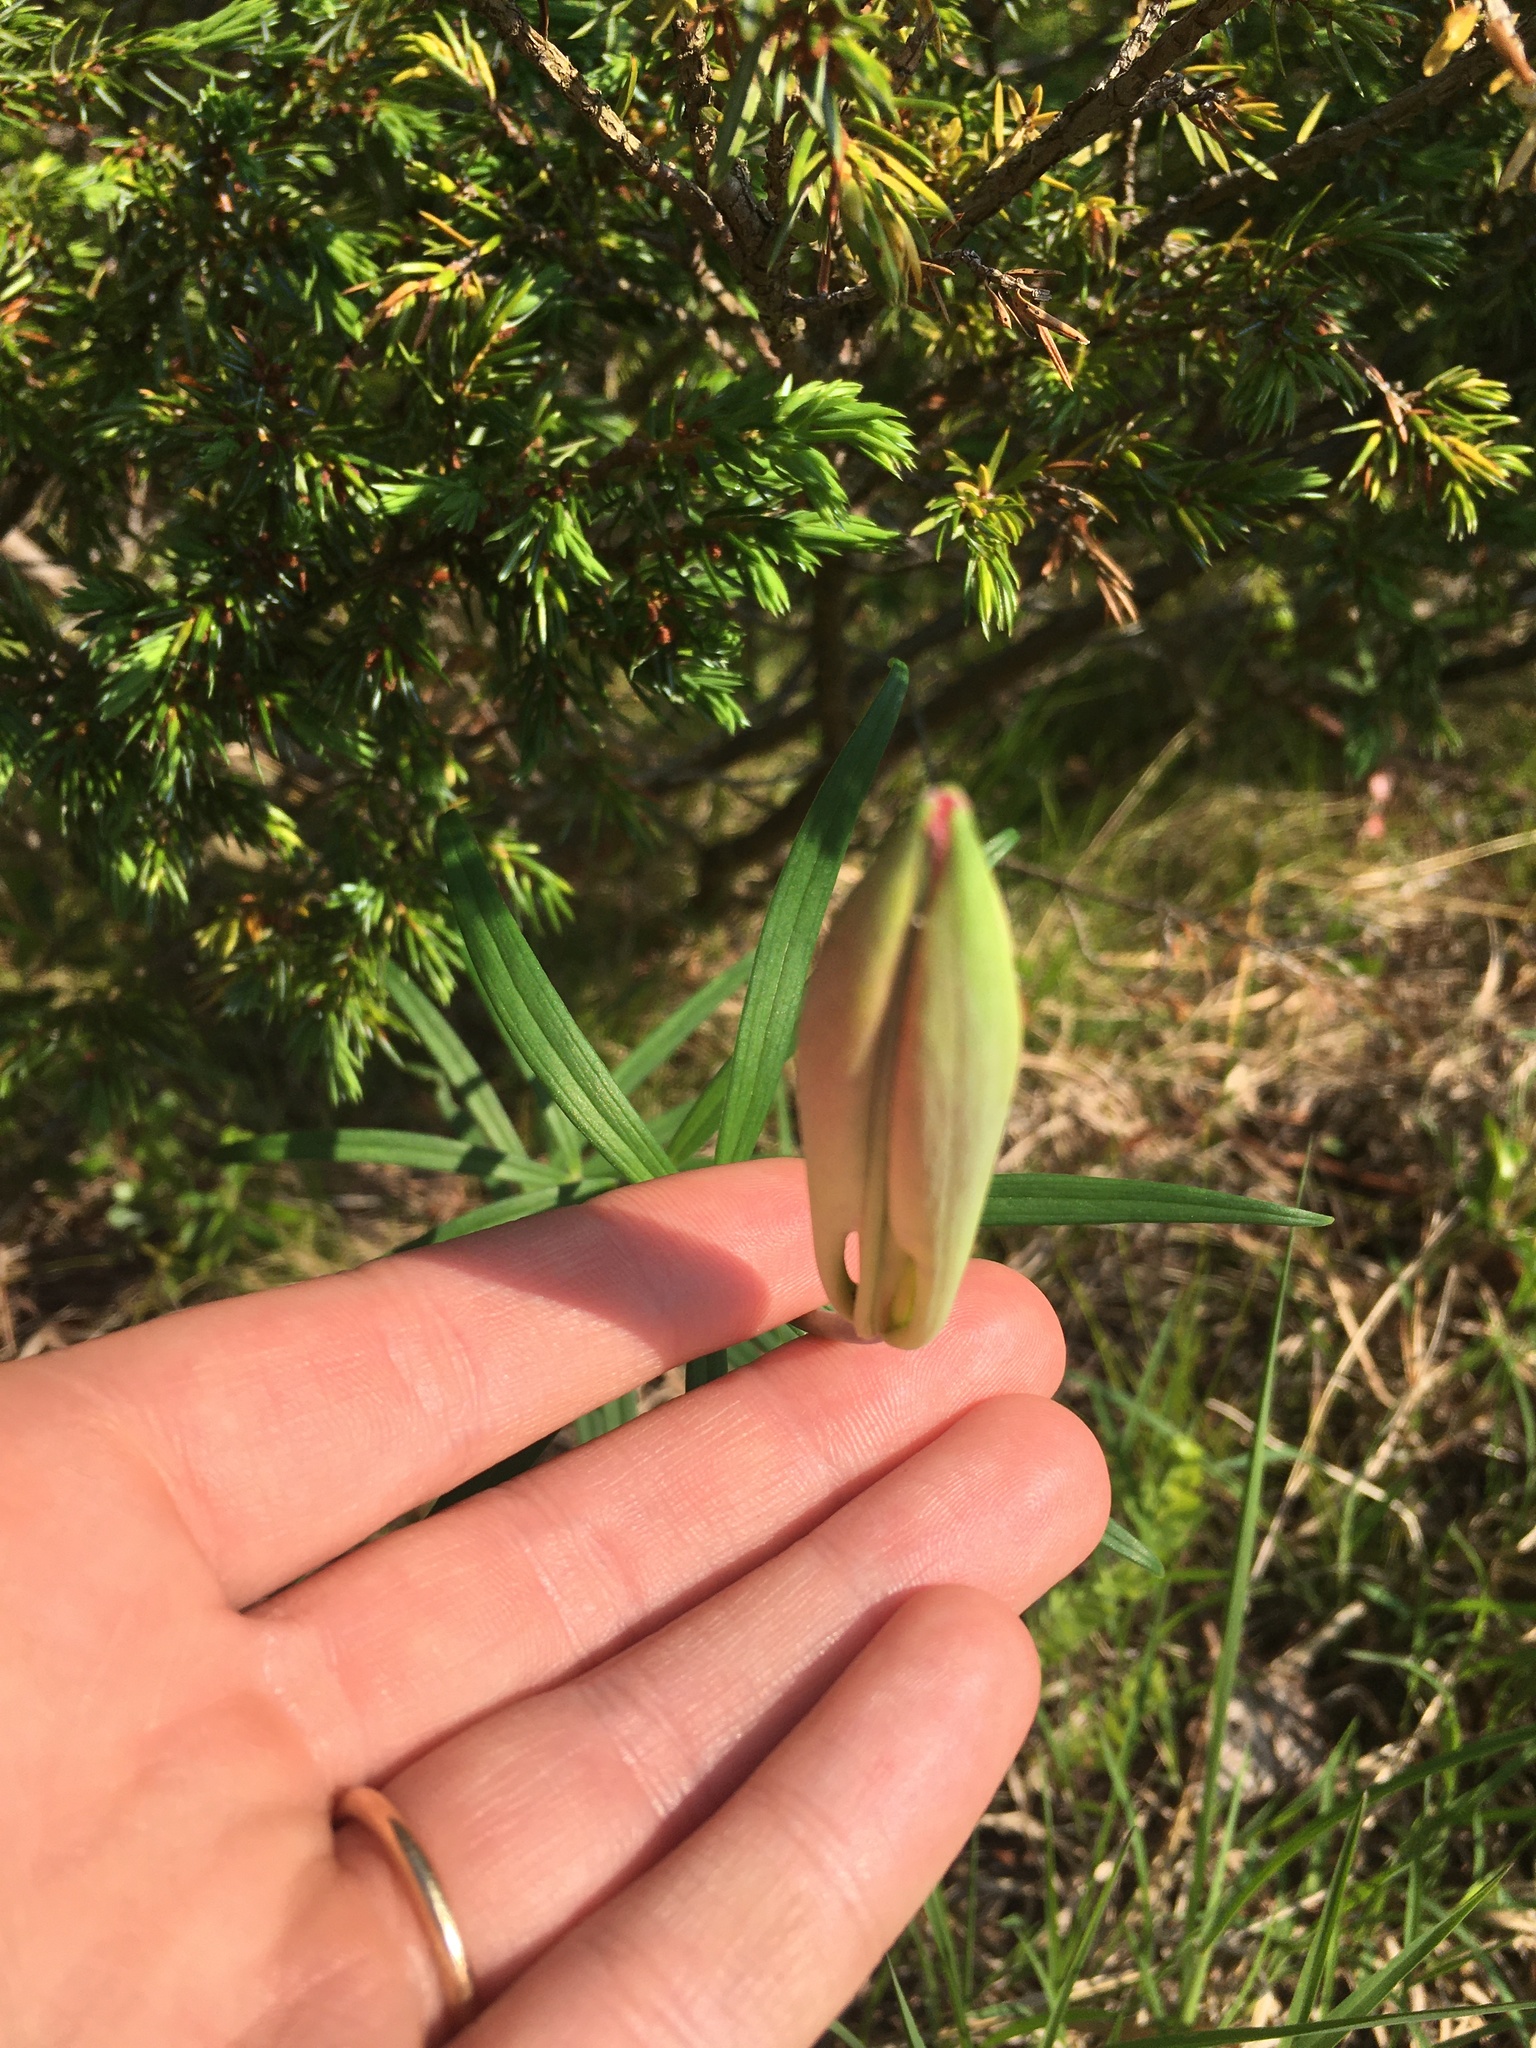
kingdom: Plantae
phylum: Tracheophyta
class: Liliopsida
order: Liliales
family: Liliaceae
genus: Lilium
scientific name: Lilium philadelphicum
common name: Red lily
